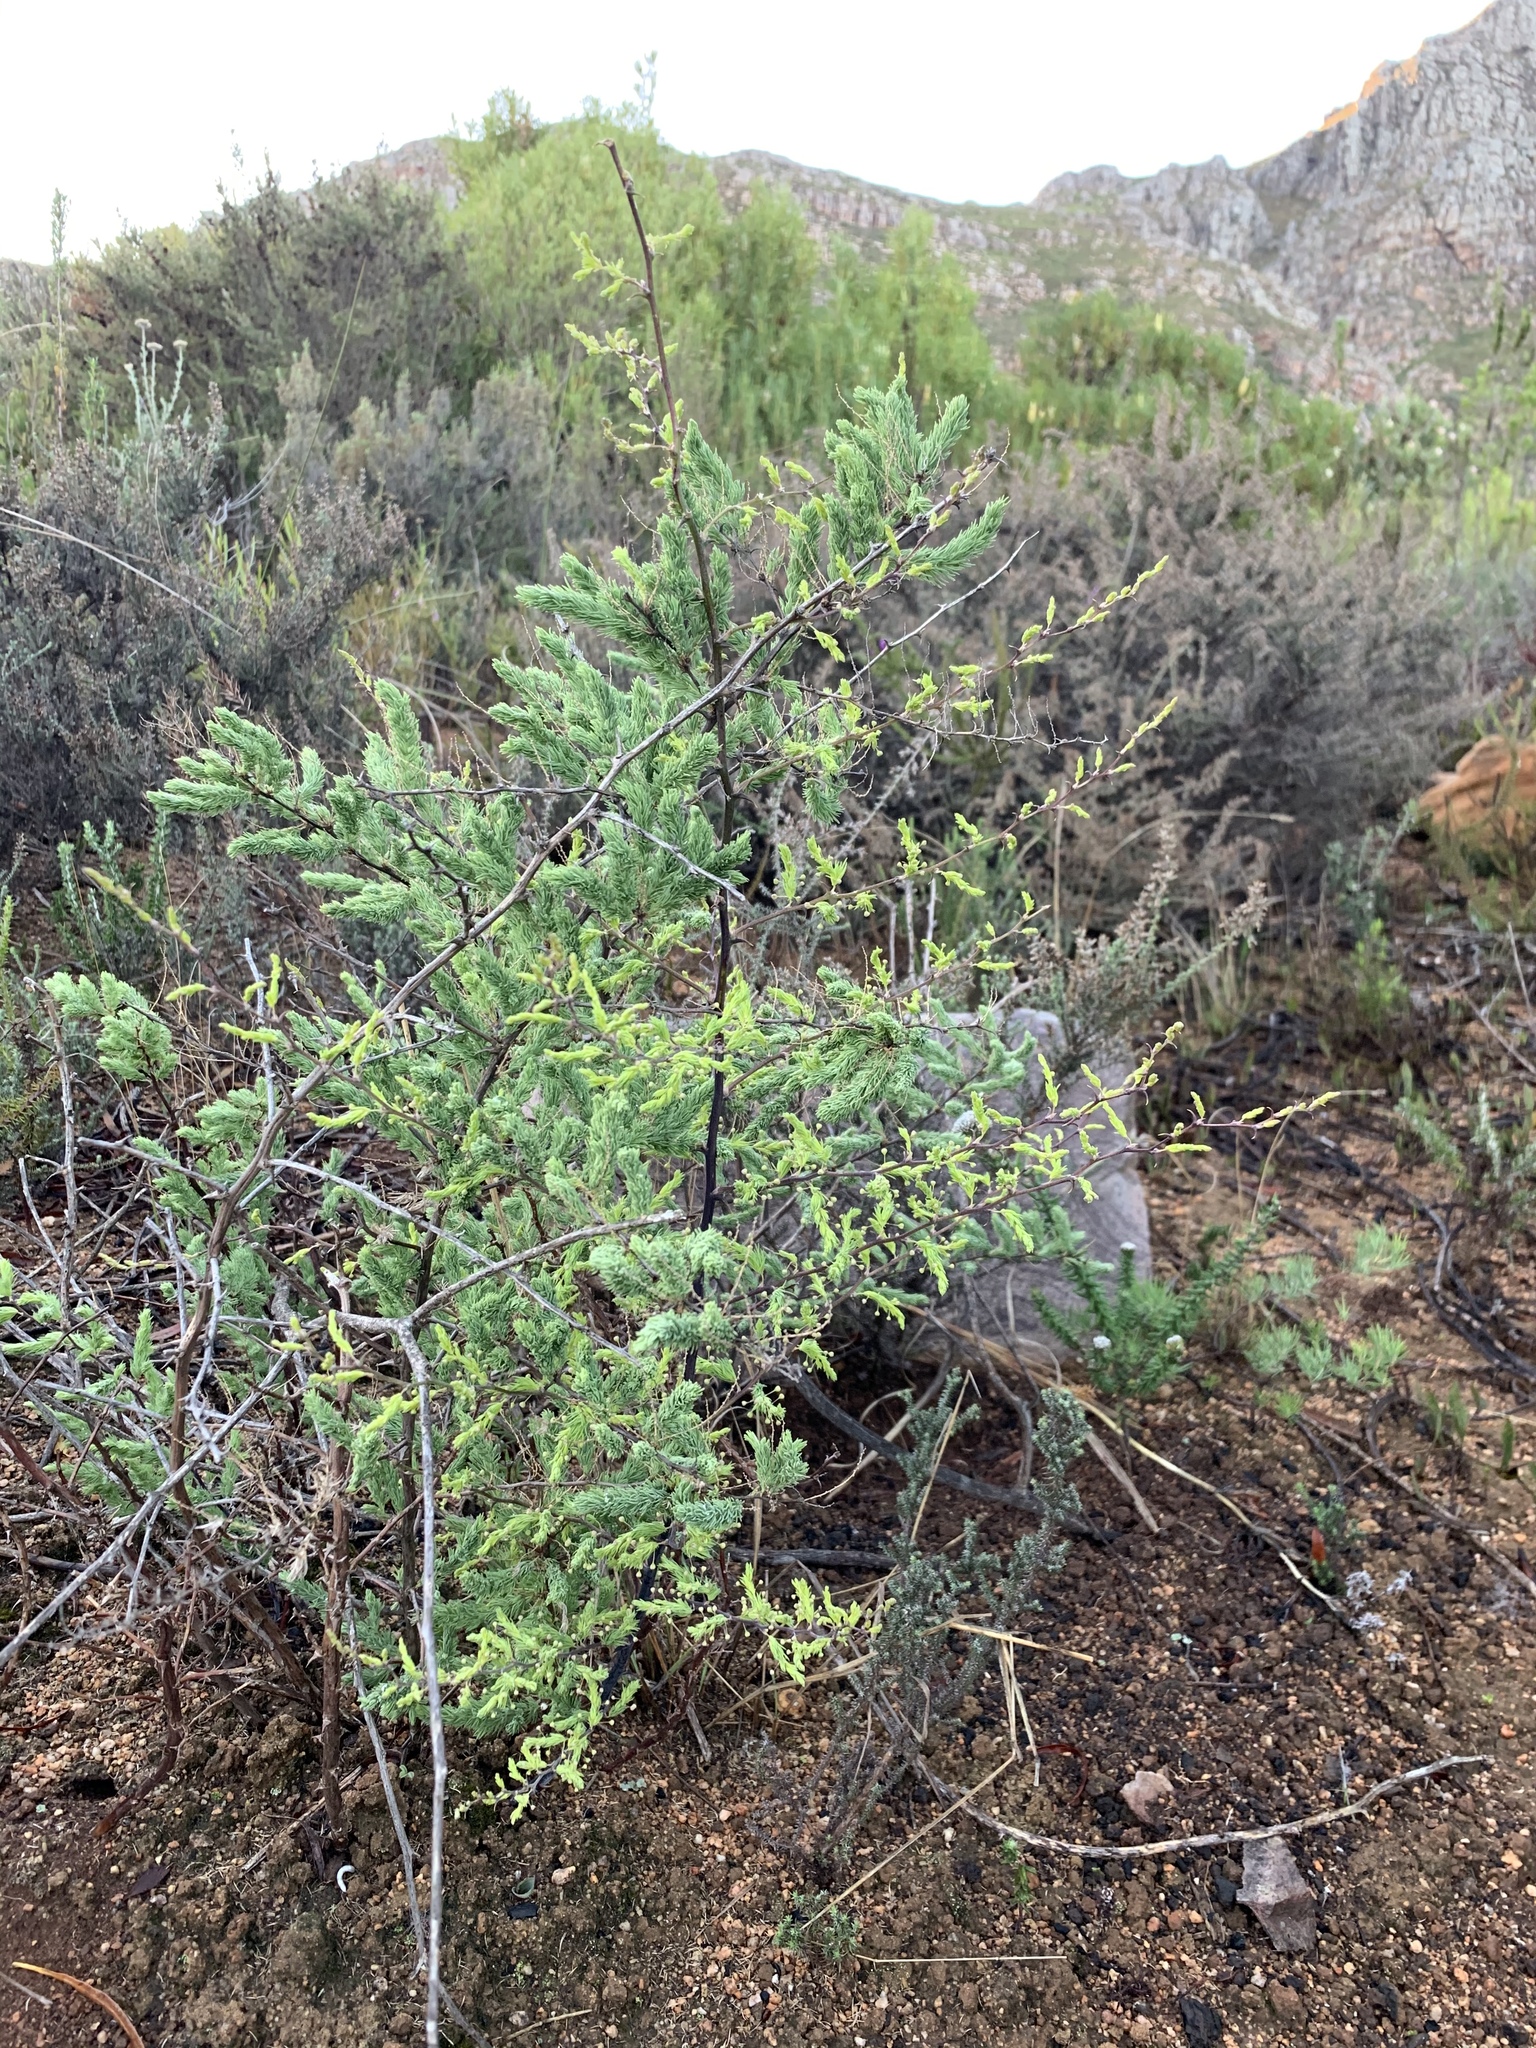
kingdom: Plantae
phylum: Tracheophyta
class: Liliopsida
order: Asparagales
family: Asparagaceae
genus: Asparagus
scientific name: Asparagus rubicundus
